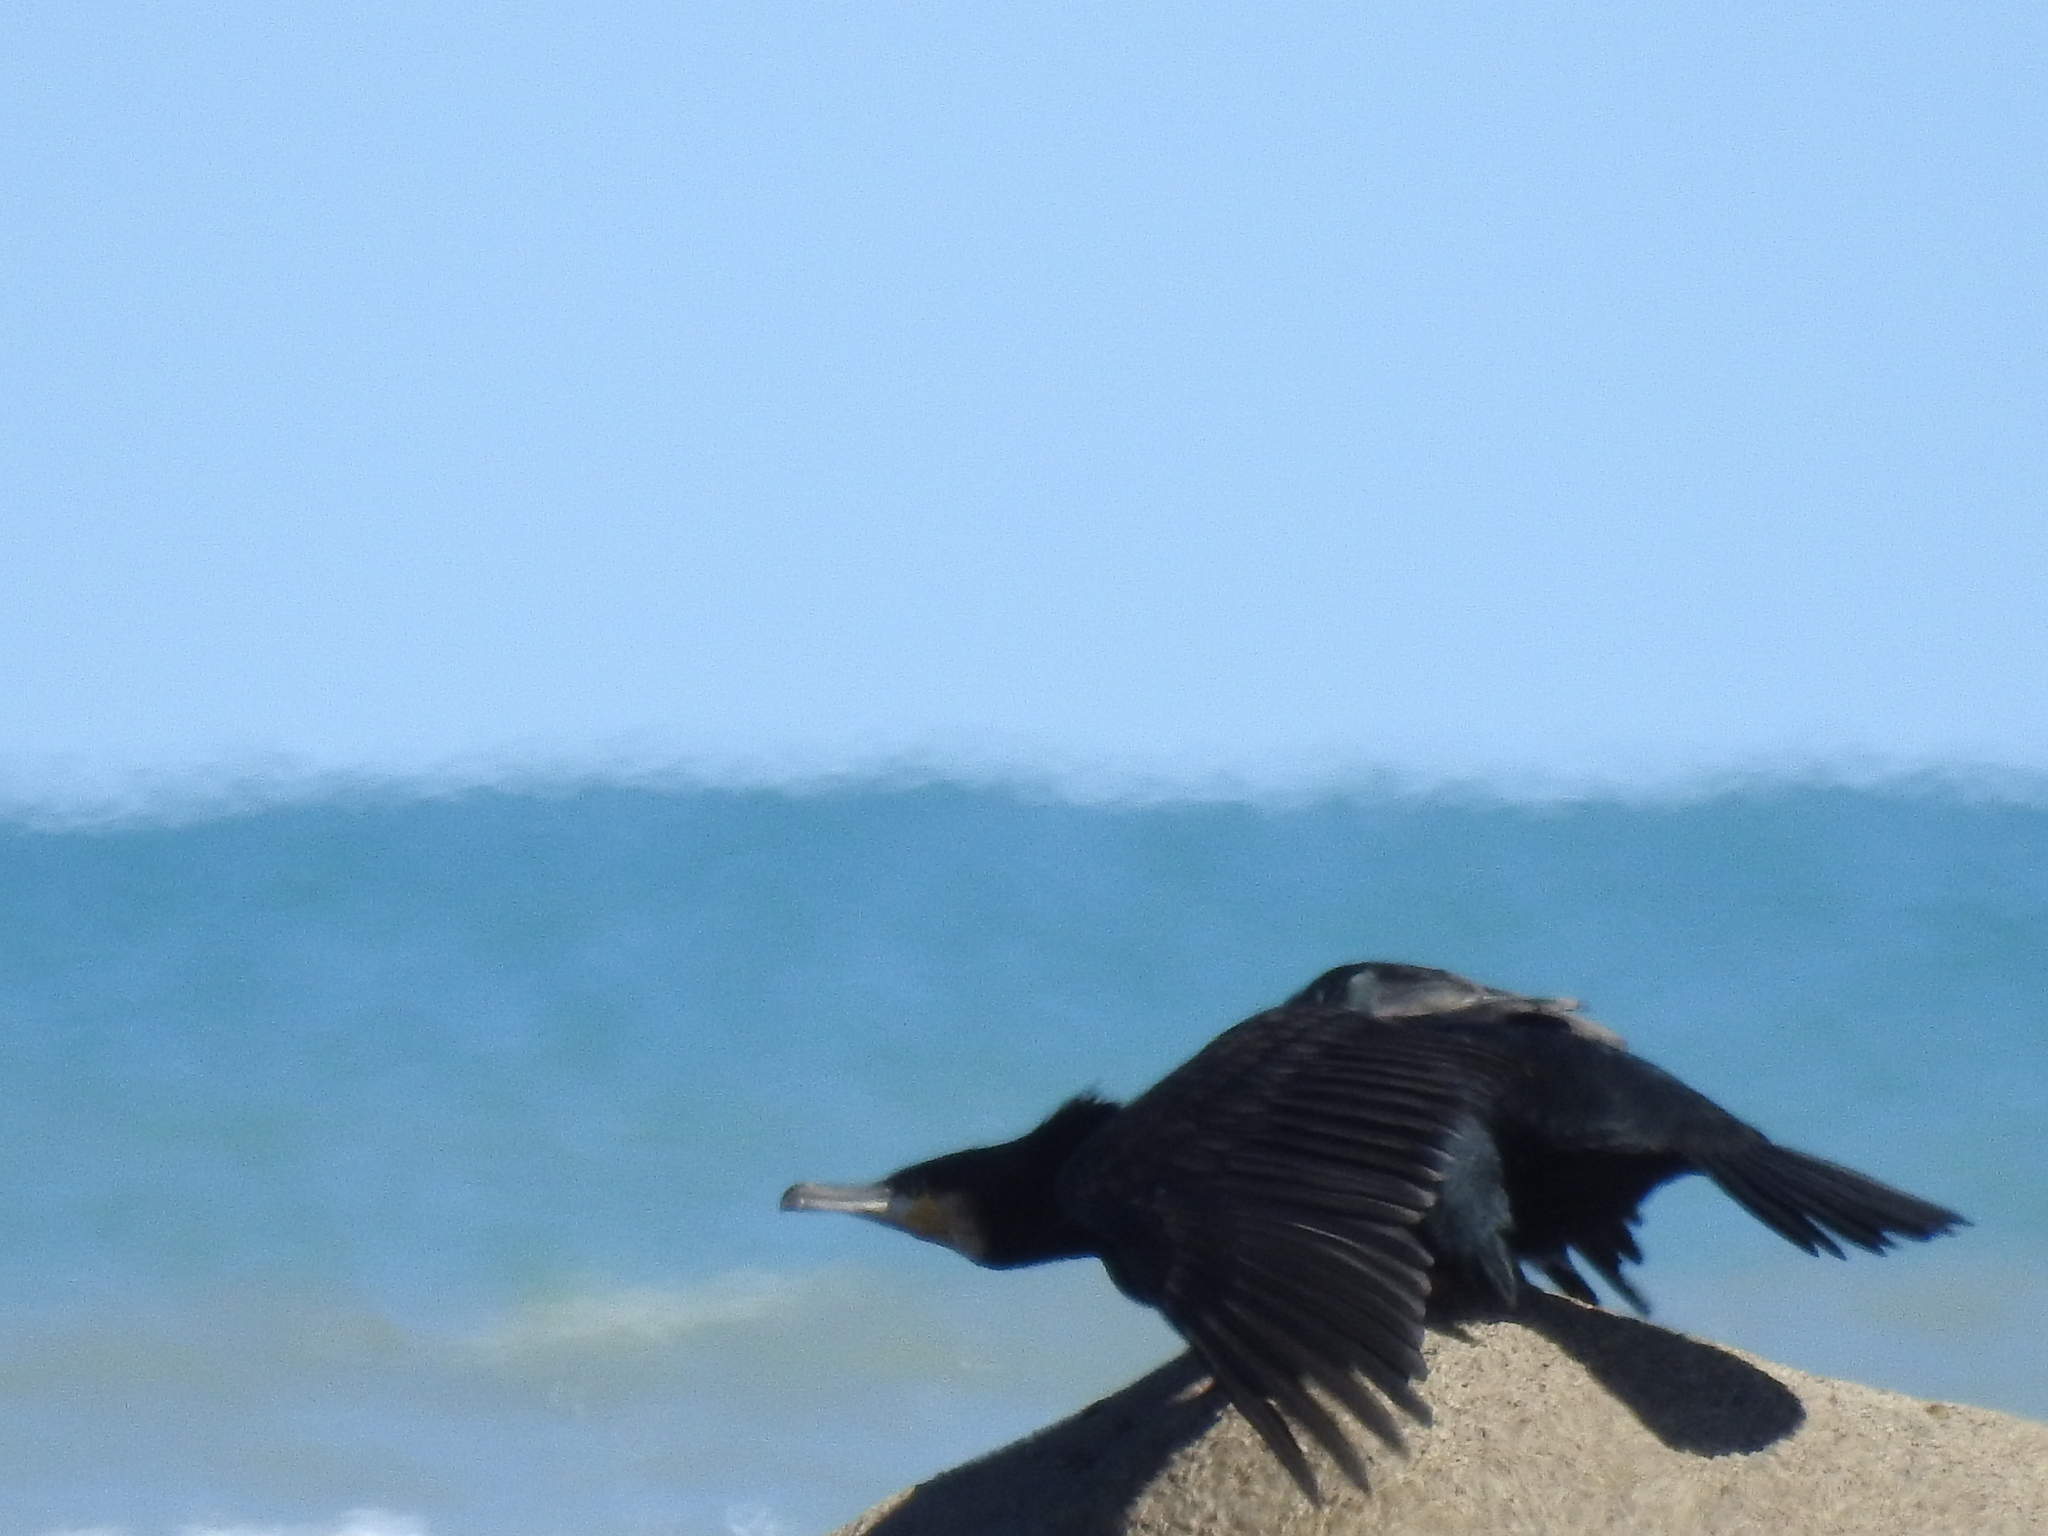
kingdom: Animalia
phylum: Chordata
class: Aves
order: Suliformes
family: Phalacrocoracidae
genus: Phalacrocorax
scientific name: Phalacrocorax carbo
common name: Great cormorant
